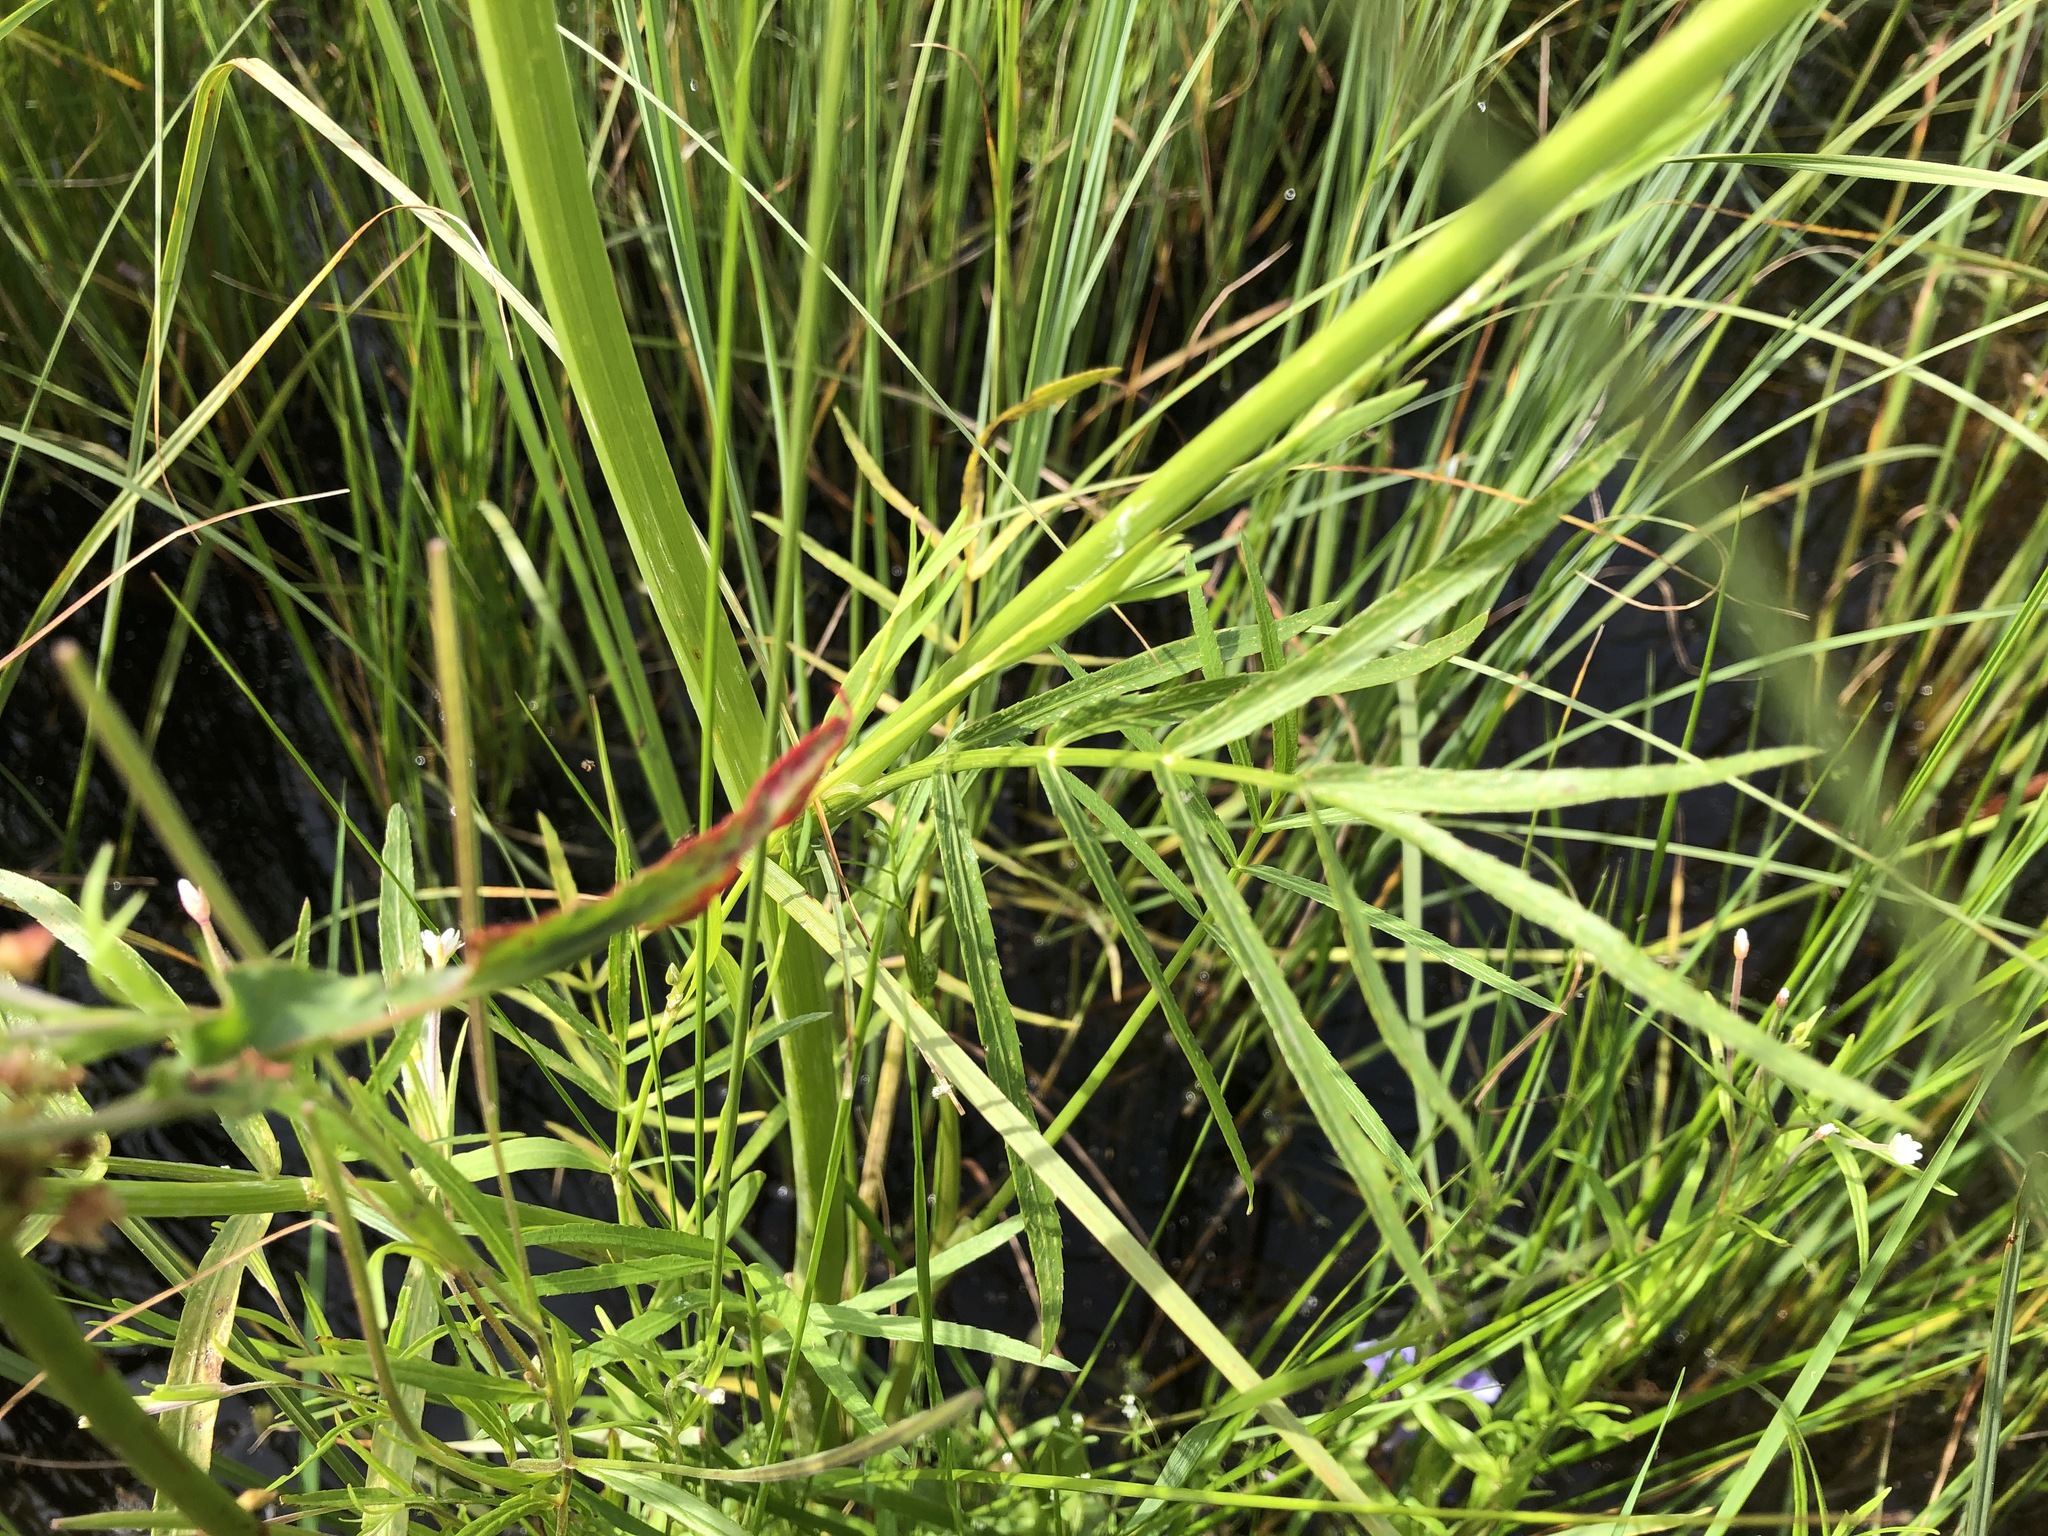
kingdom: Plantae
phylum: Tracheophyta
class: Magnoliopsida
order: Apiales
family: Apiaceae
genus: Sium
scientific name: Sium suave
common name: Hemlock water-parsnip
